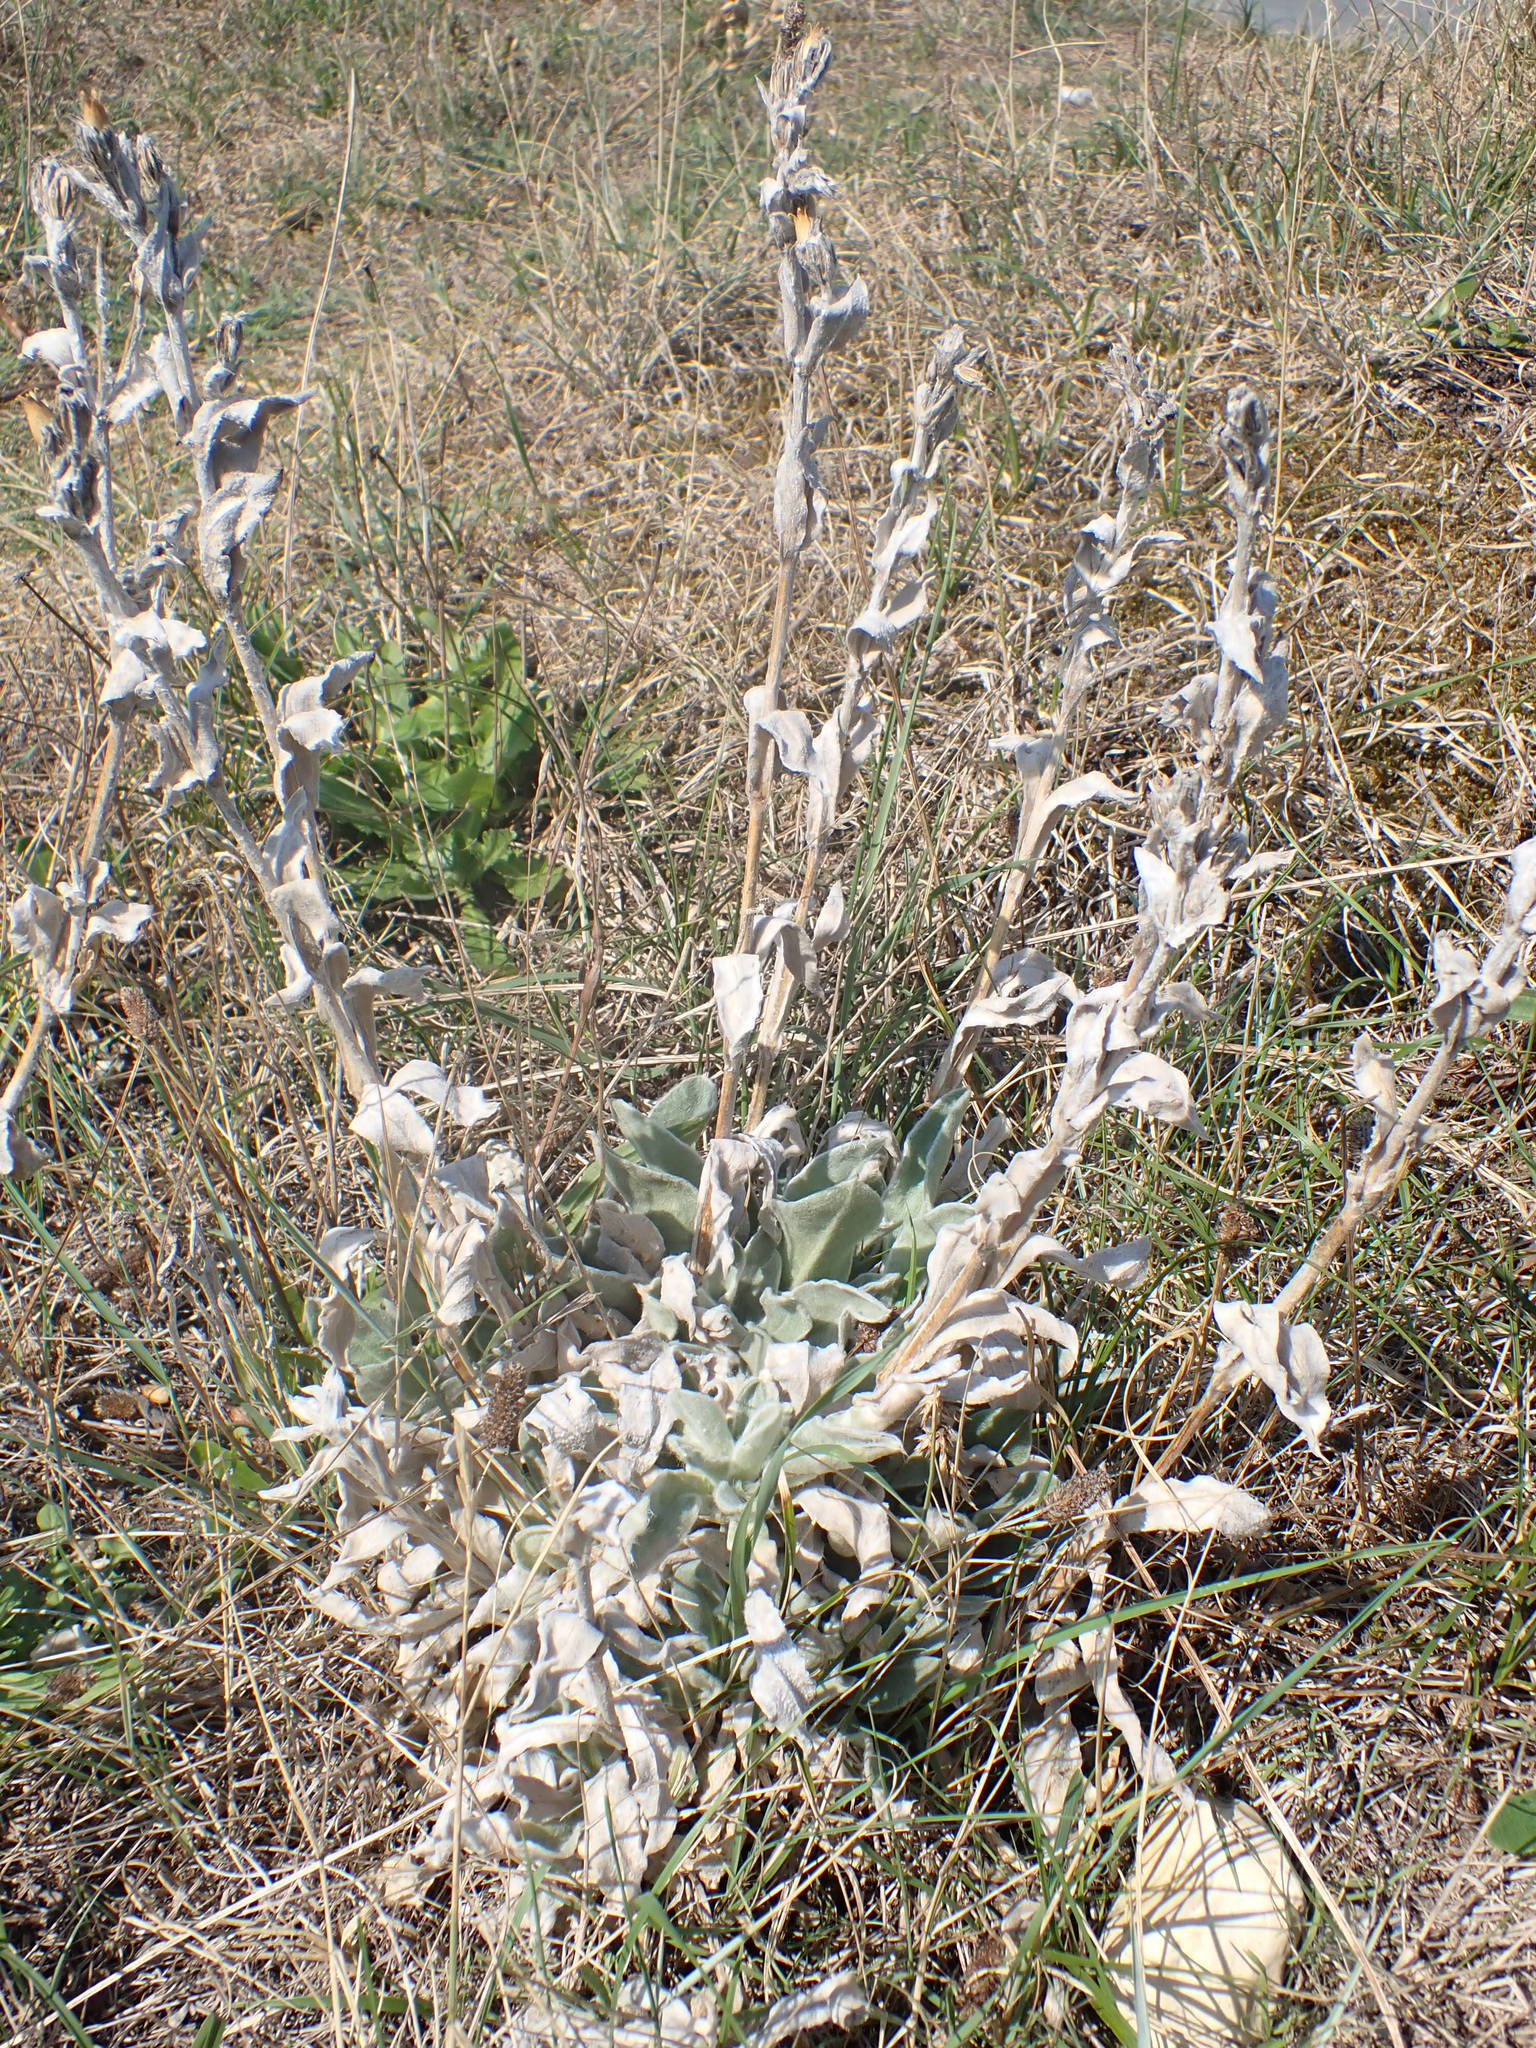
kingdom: Plantae
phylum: Tracheophyta
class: Magnoliopsida
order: Caryophyllales
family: Caryophyllaceae
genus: Silene
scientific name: Silene coronaria
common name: Rose campion
